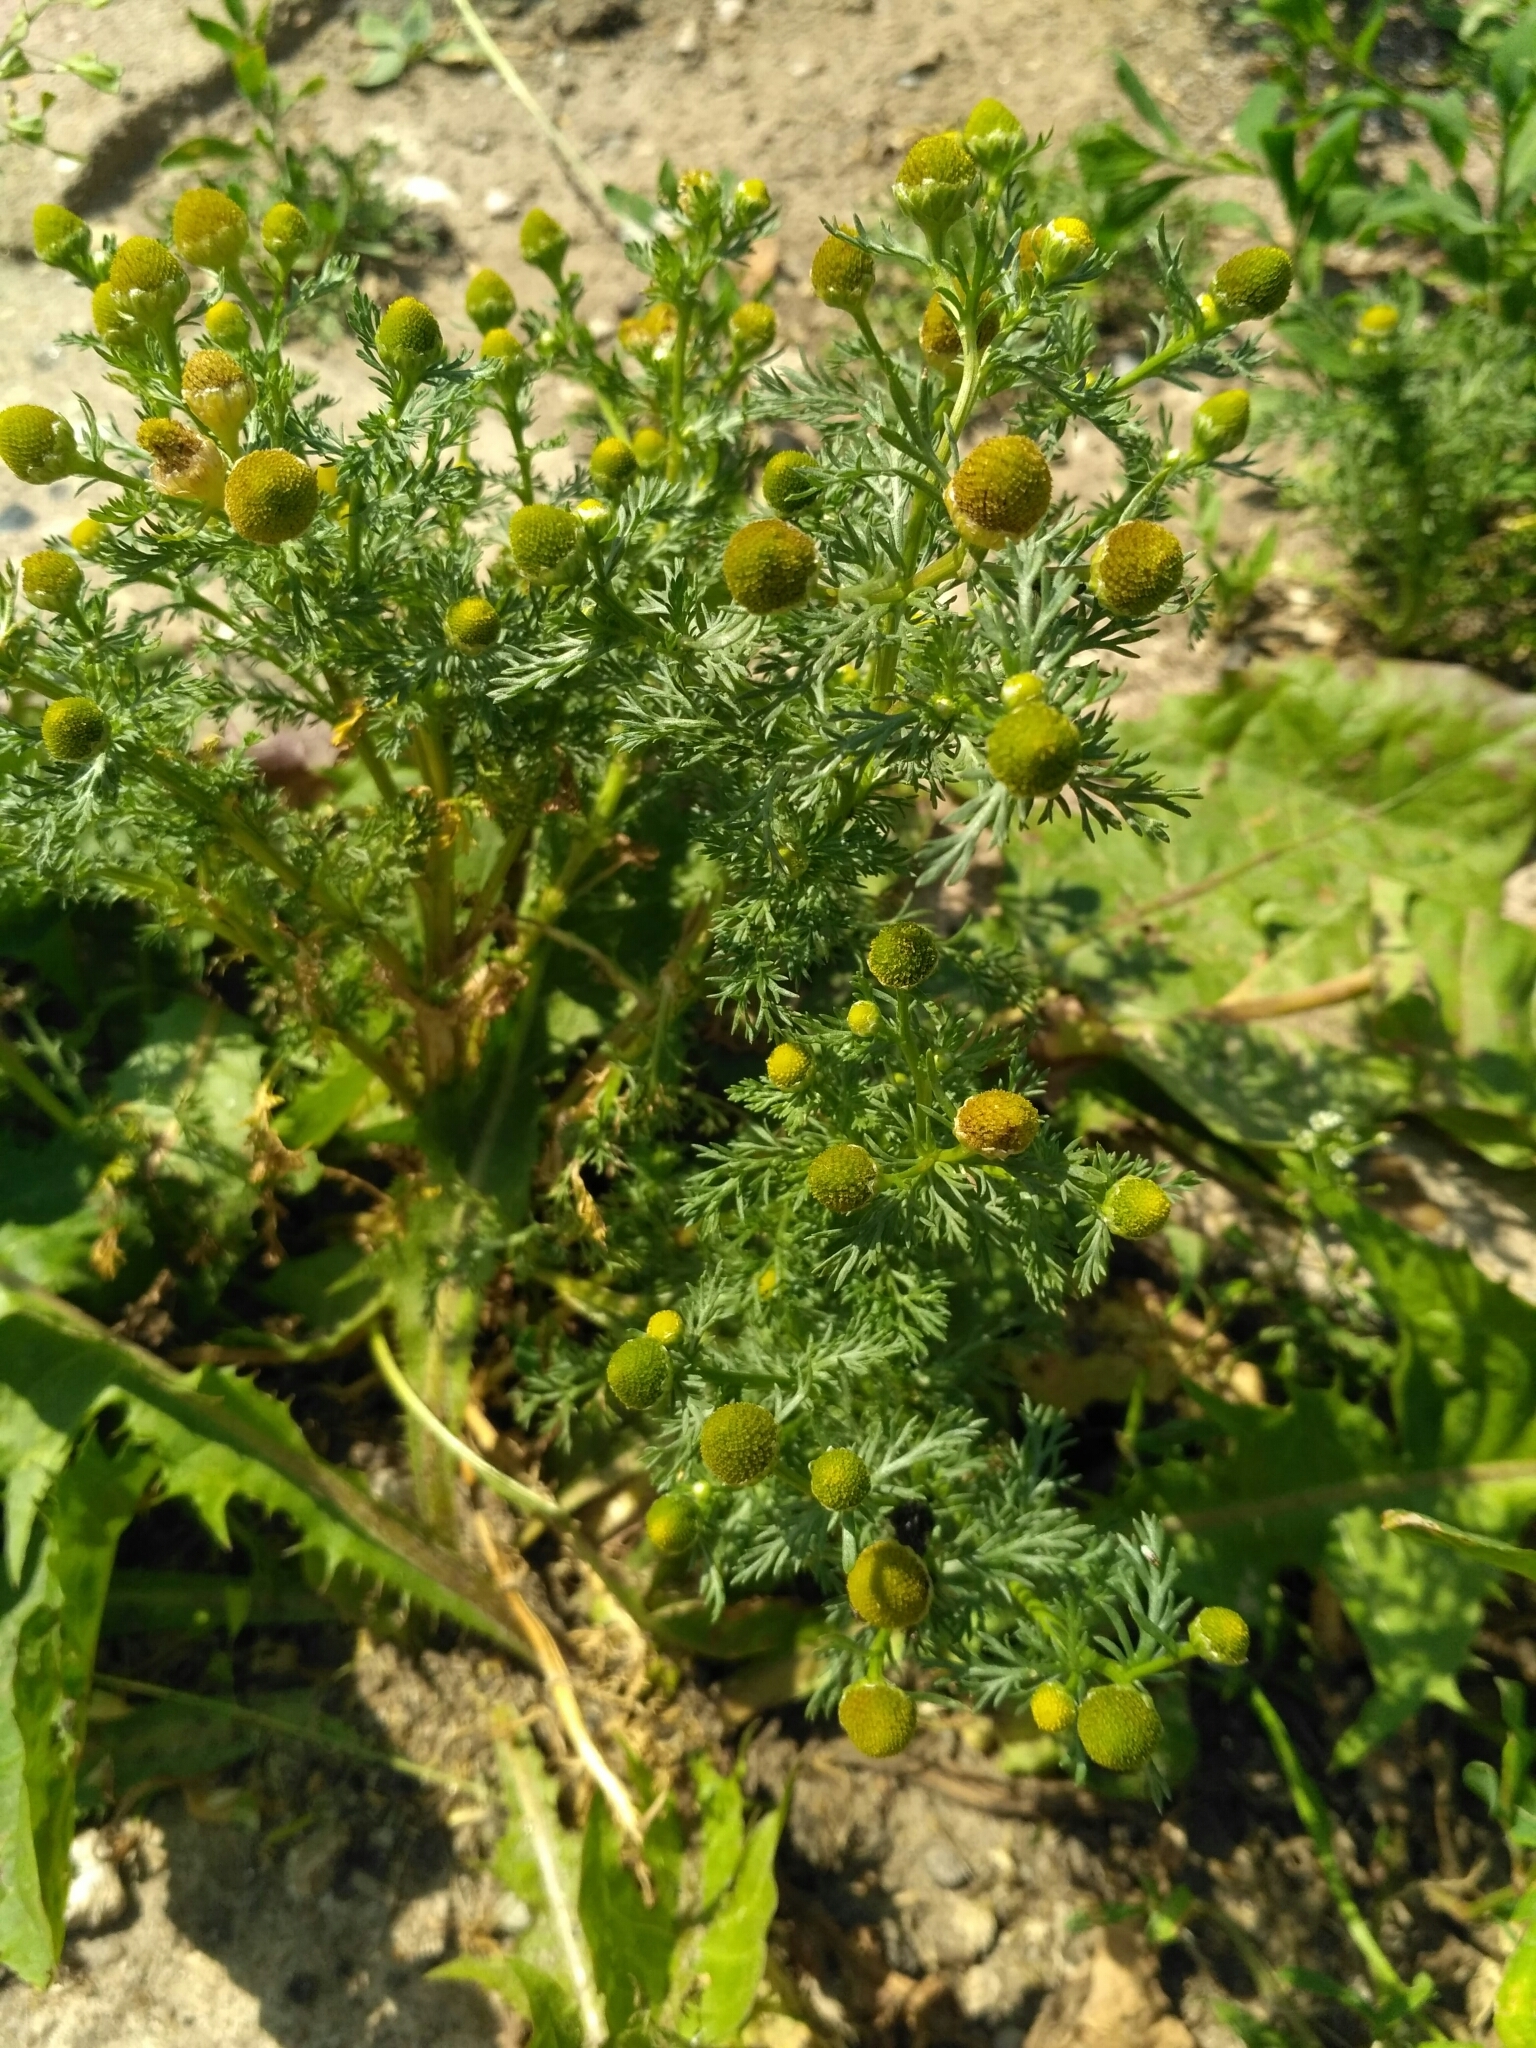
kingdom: Plantae
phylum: Tracheophyta
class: Magnoliopsida
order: Asterales
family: Asteraceae
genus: Matricaria
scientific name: Matricaria discoidea
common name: Disc mayweed
